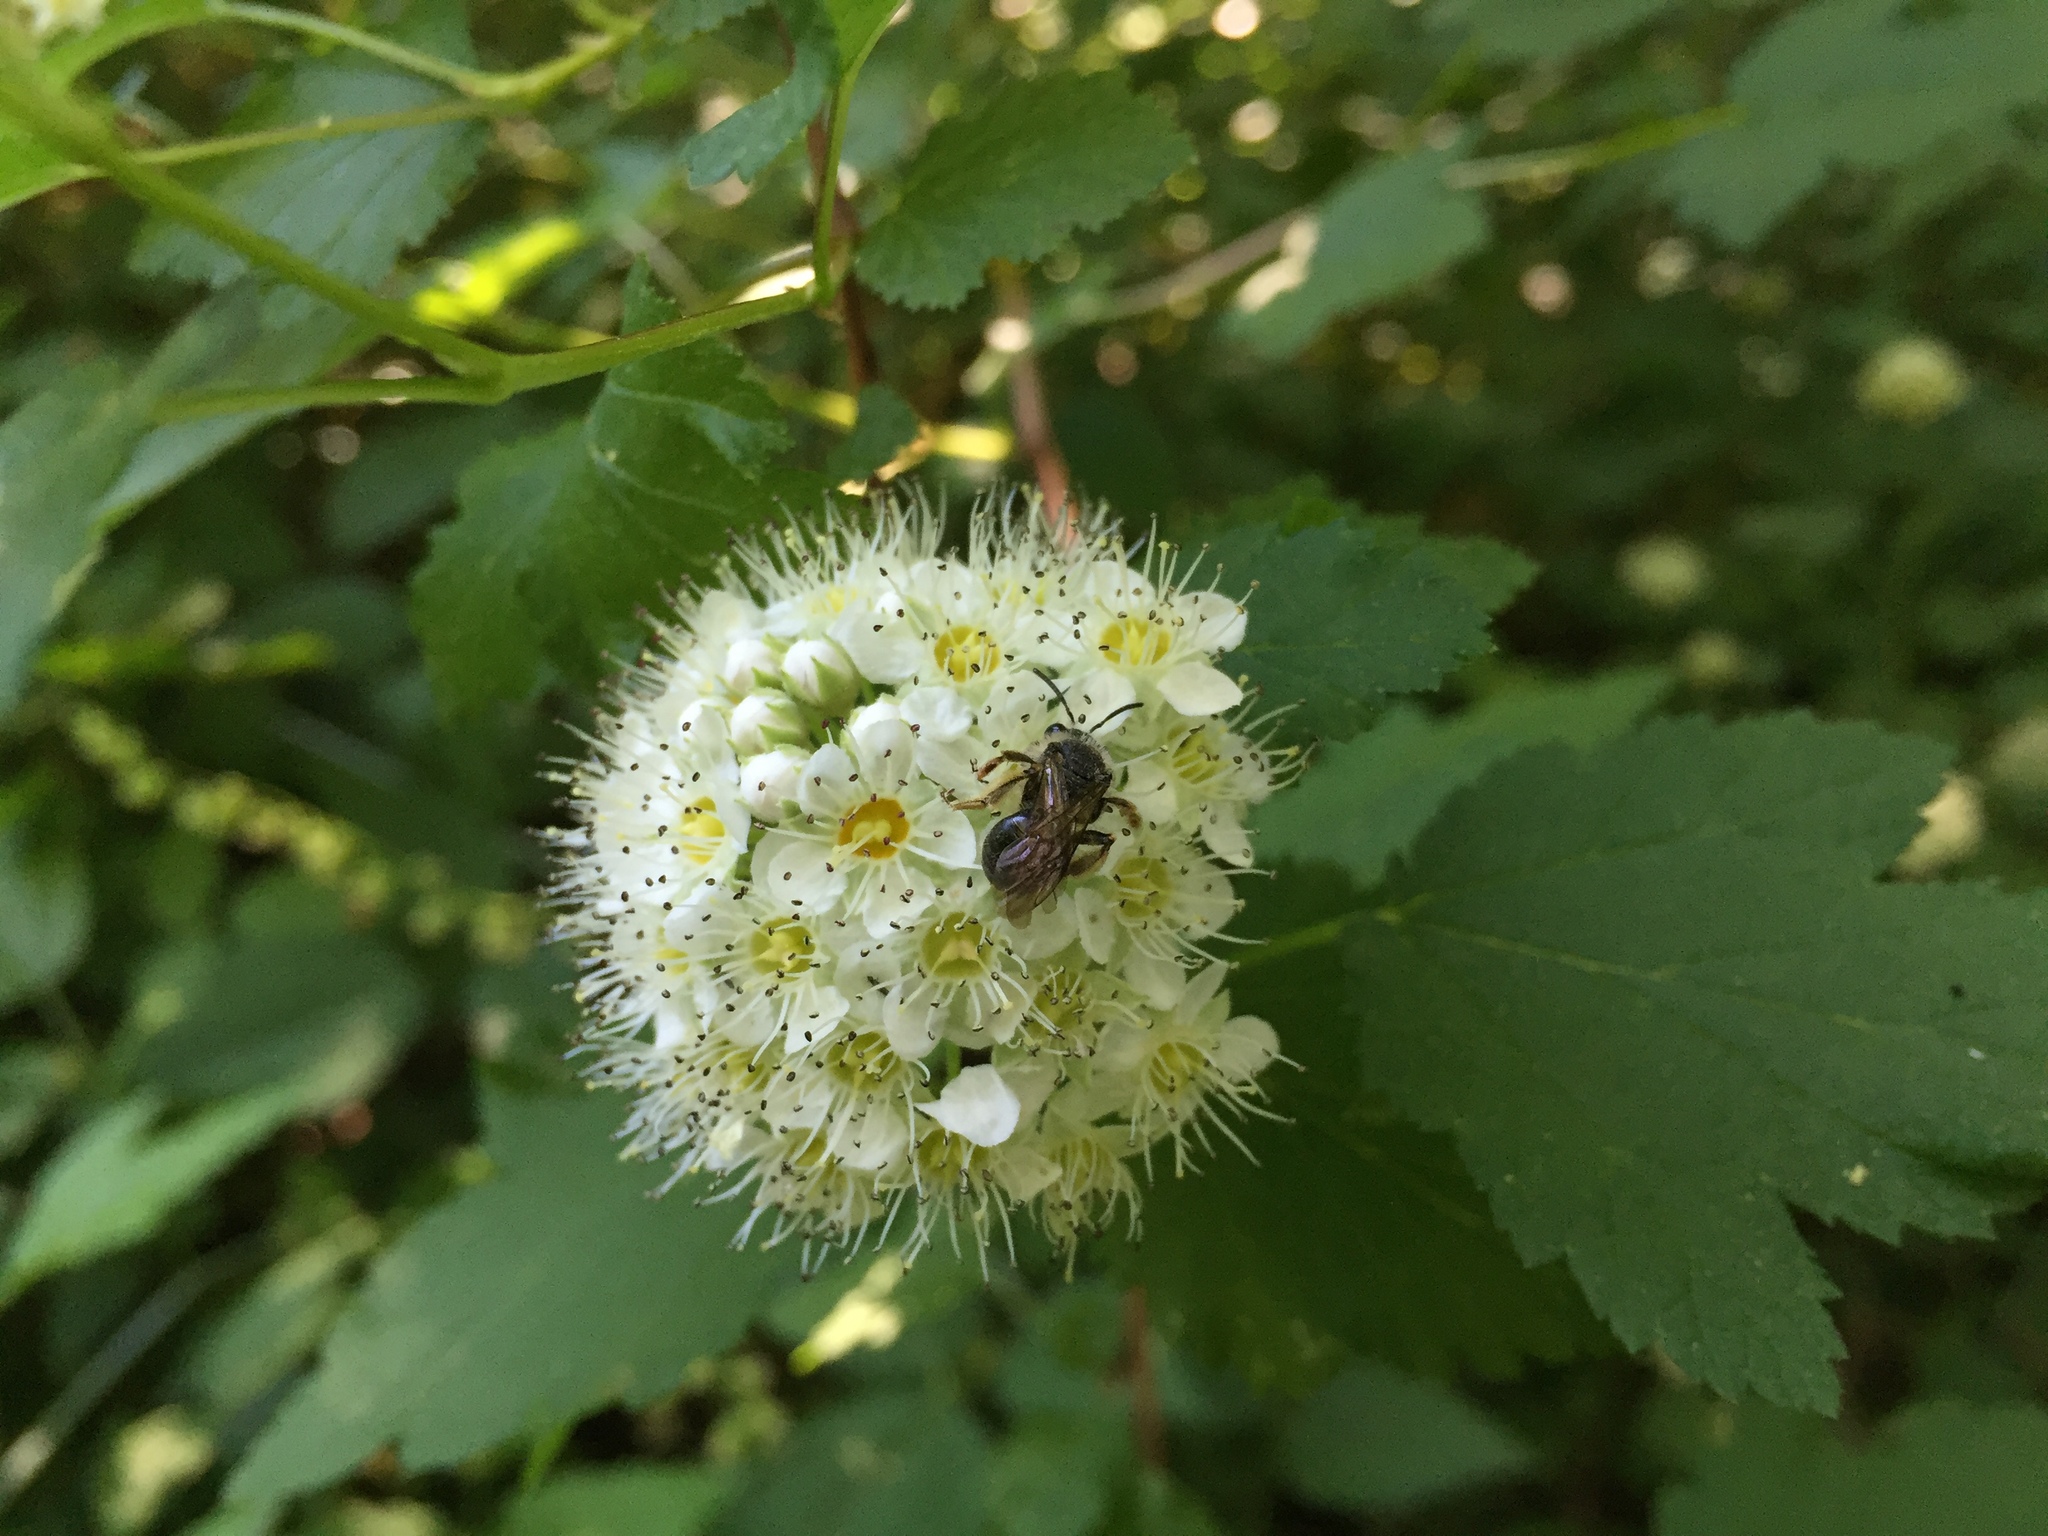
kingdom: Plantae
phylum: Tracheophyta
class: Magnoliopsida
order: Rosales
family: Rosaceae
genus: Physocarpus
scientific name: Physocarpus capitatus
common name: Pacific ninebark
